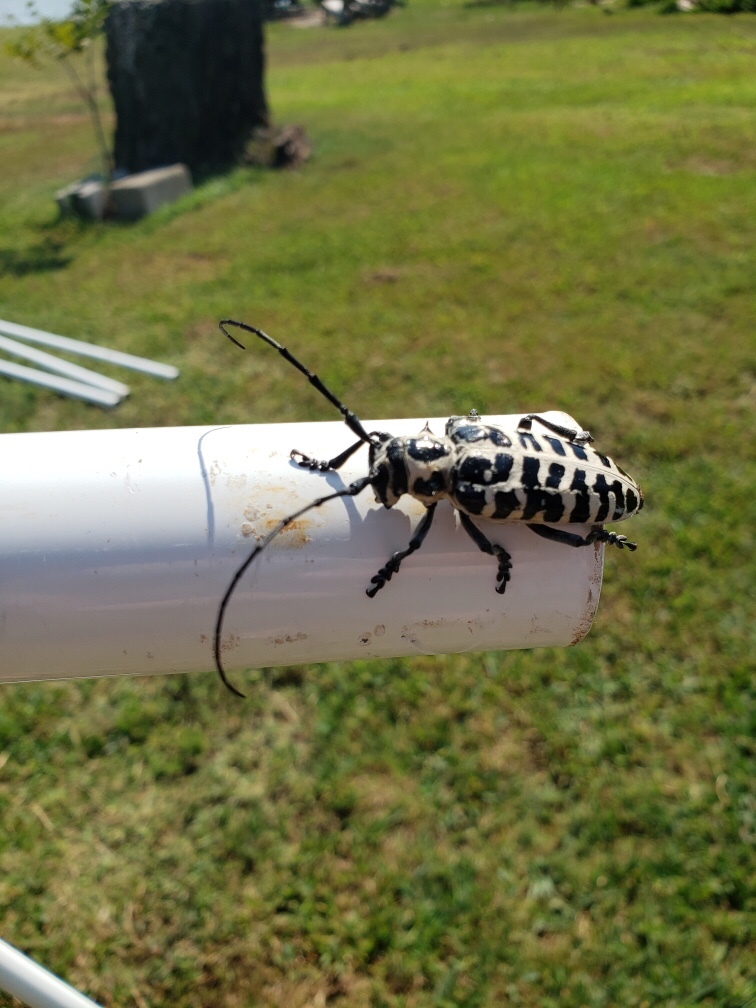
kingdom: Animalia
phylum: Arthropoda
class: Insecta
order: Coleoptera
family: Cerambycidae
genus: Plectrodera
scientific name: Plectrodera scalator
